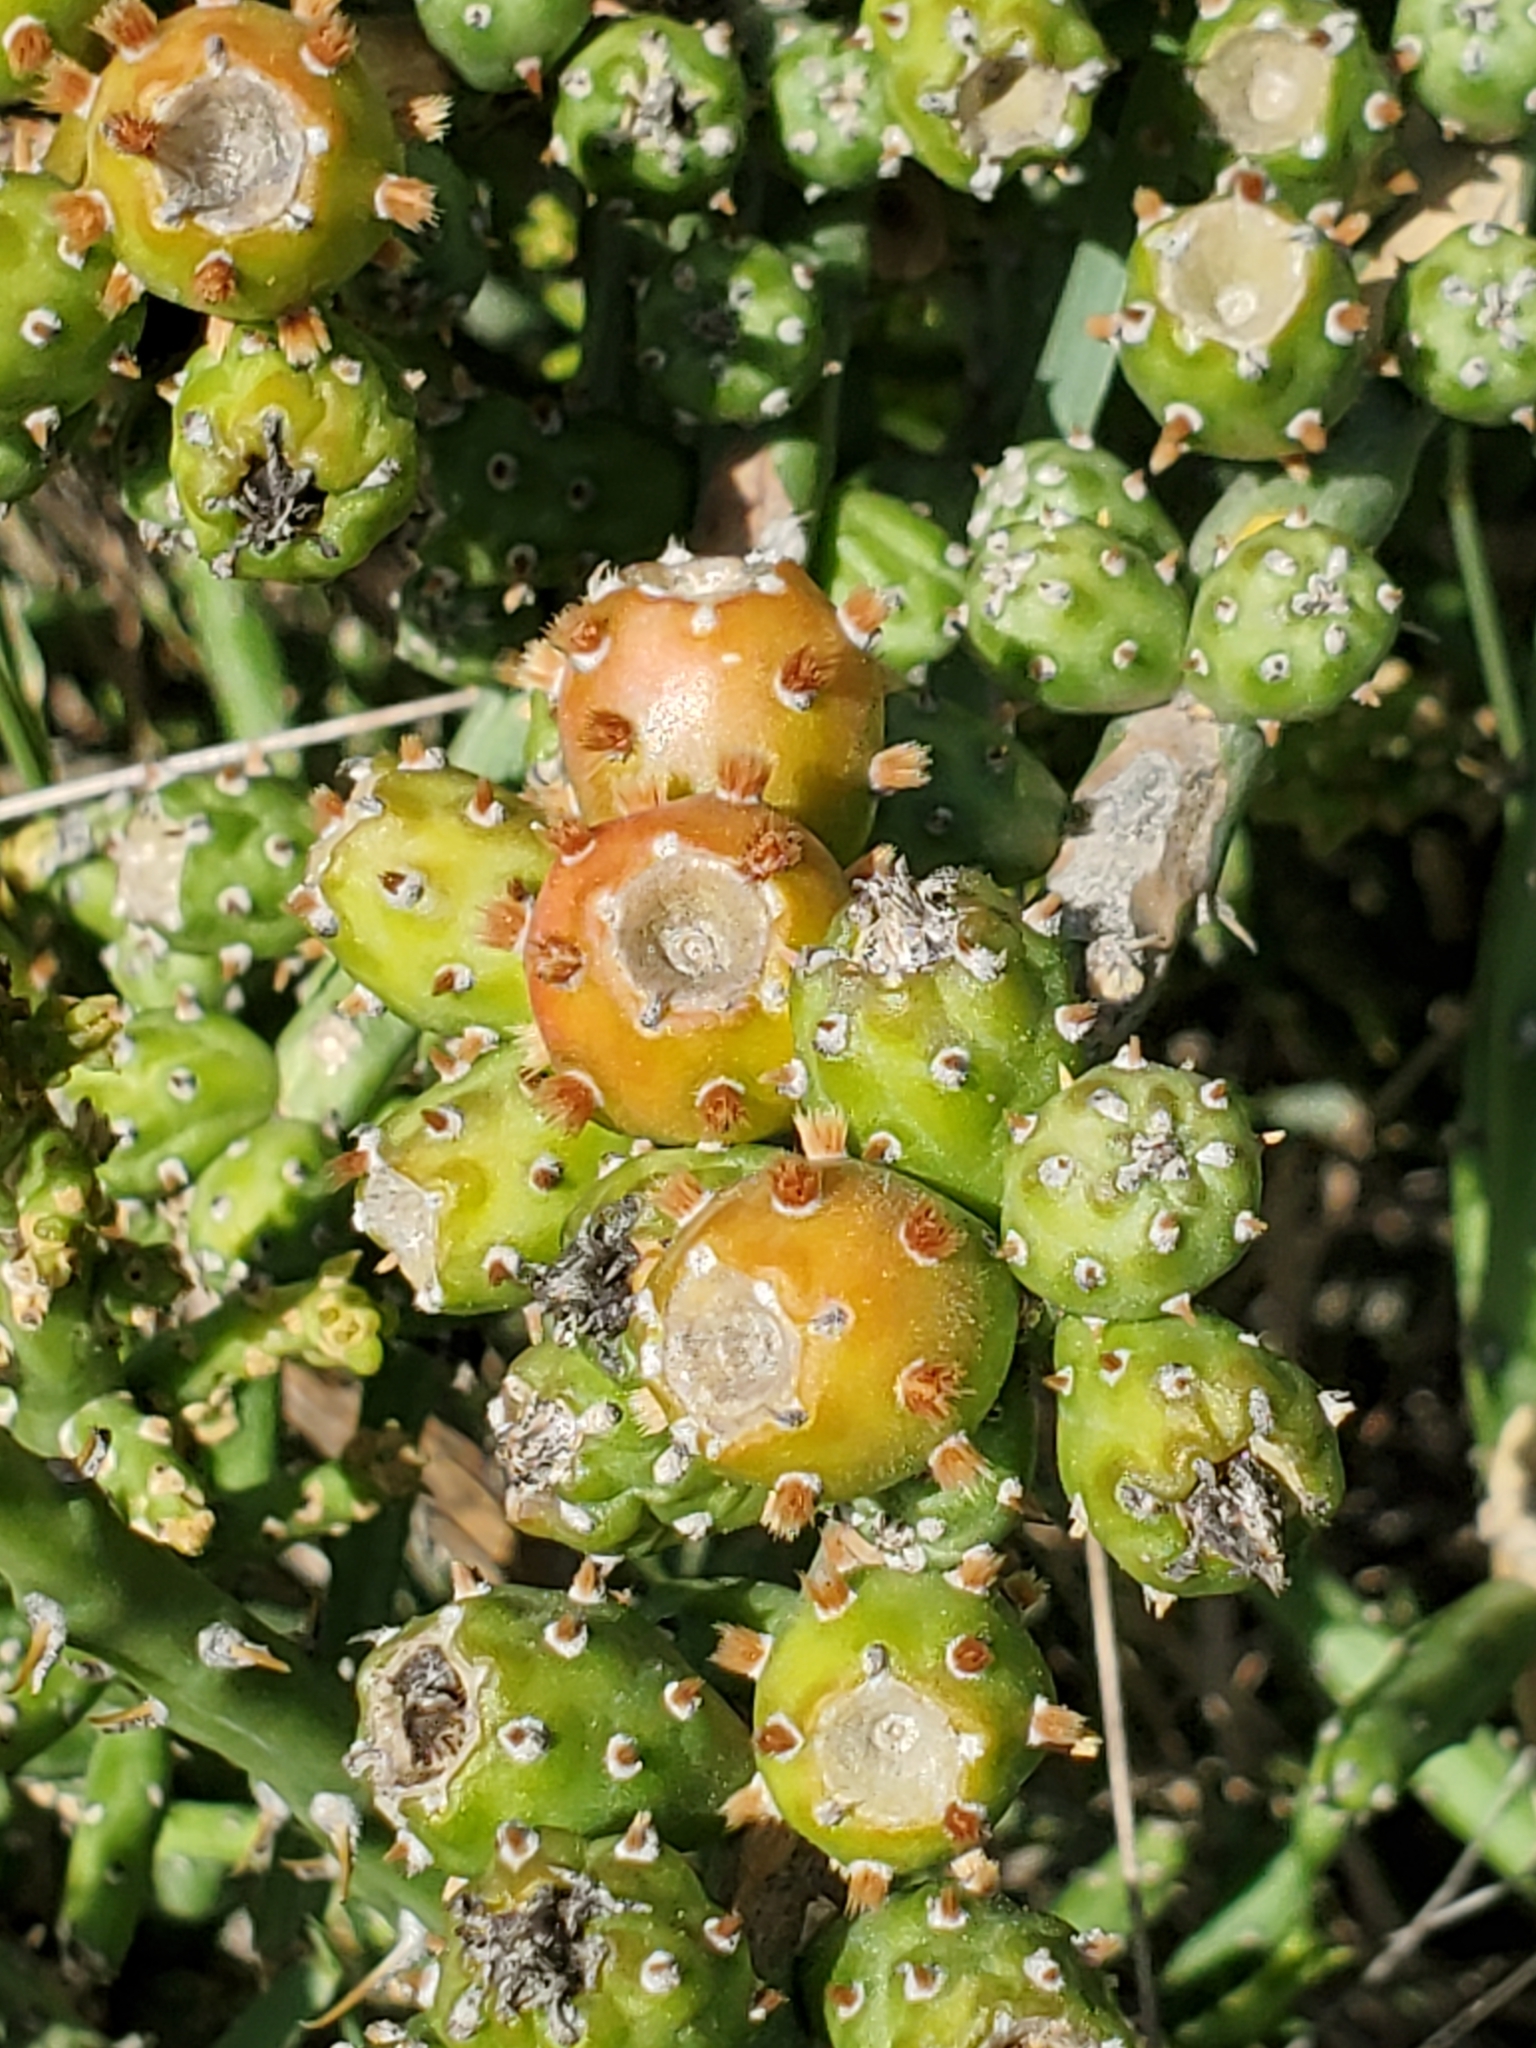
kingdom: Plantae
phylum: Tracheophyta
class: Magnoliopsida
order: Caryophyllales
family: Cactaceae
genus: Cylindropuntia
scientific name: Cylindropuntia leptocaulis
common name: Christmas cactus
